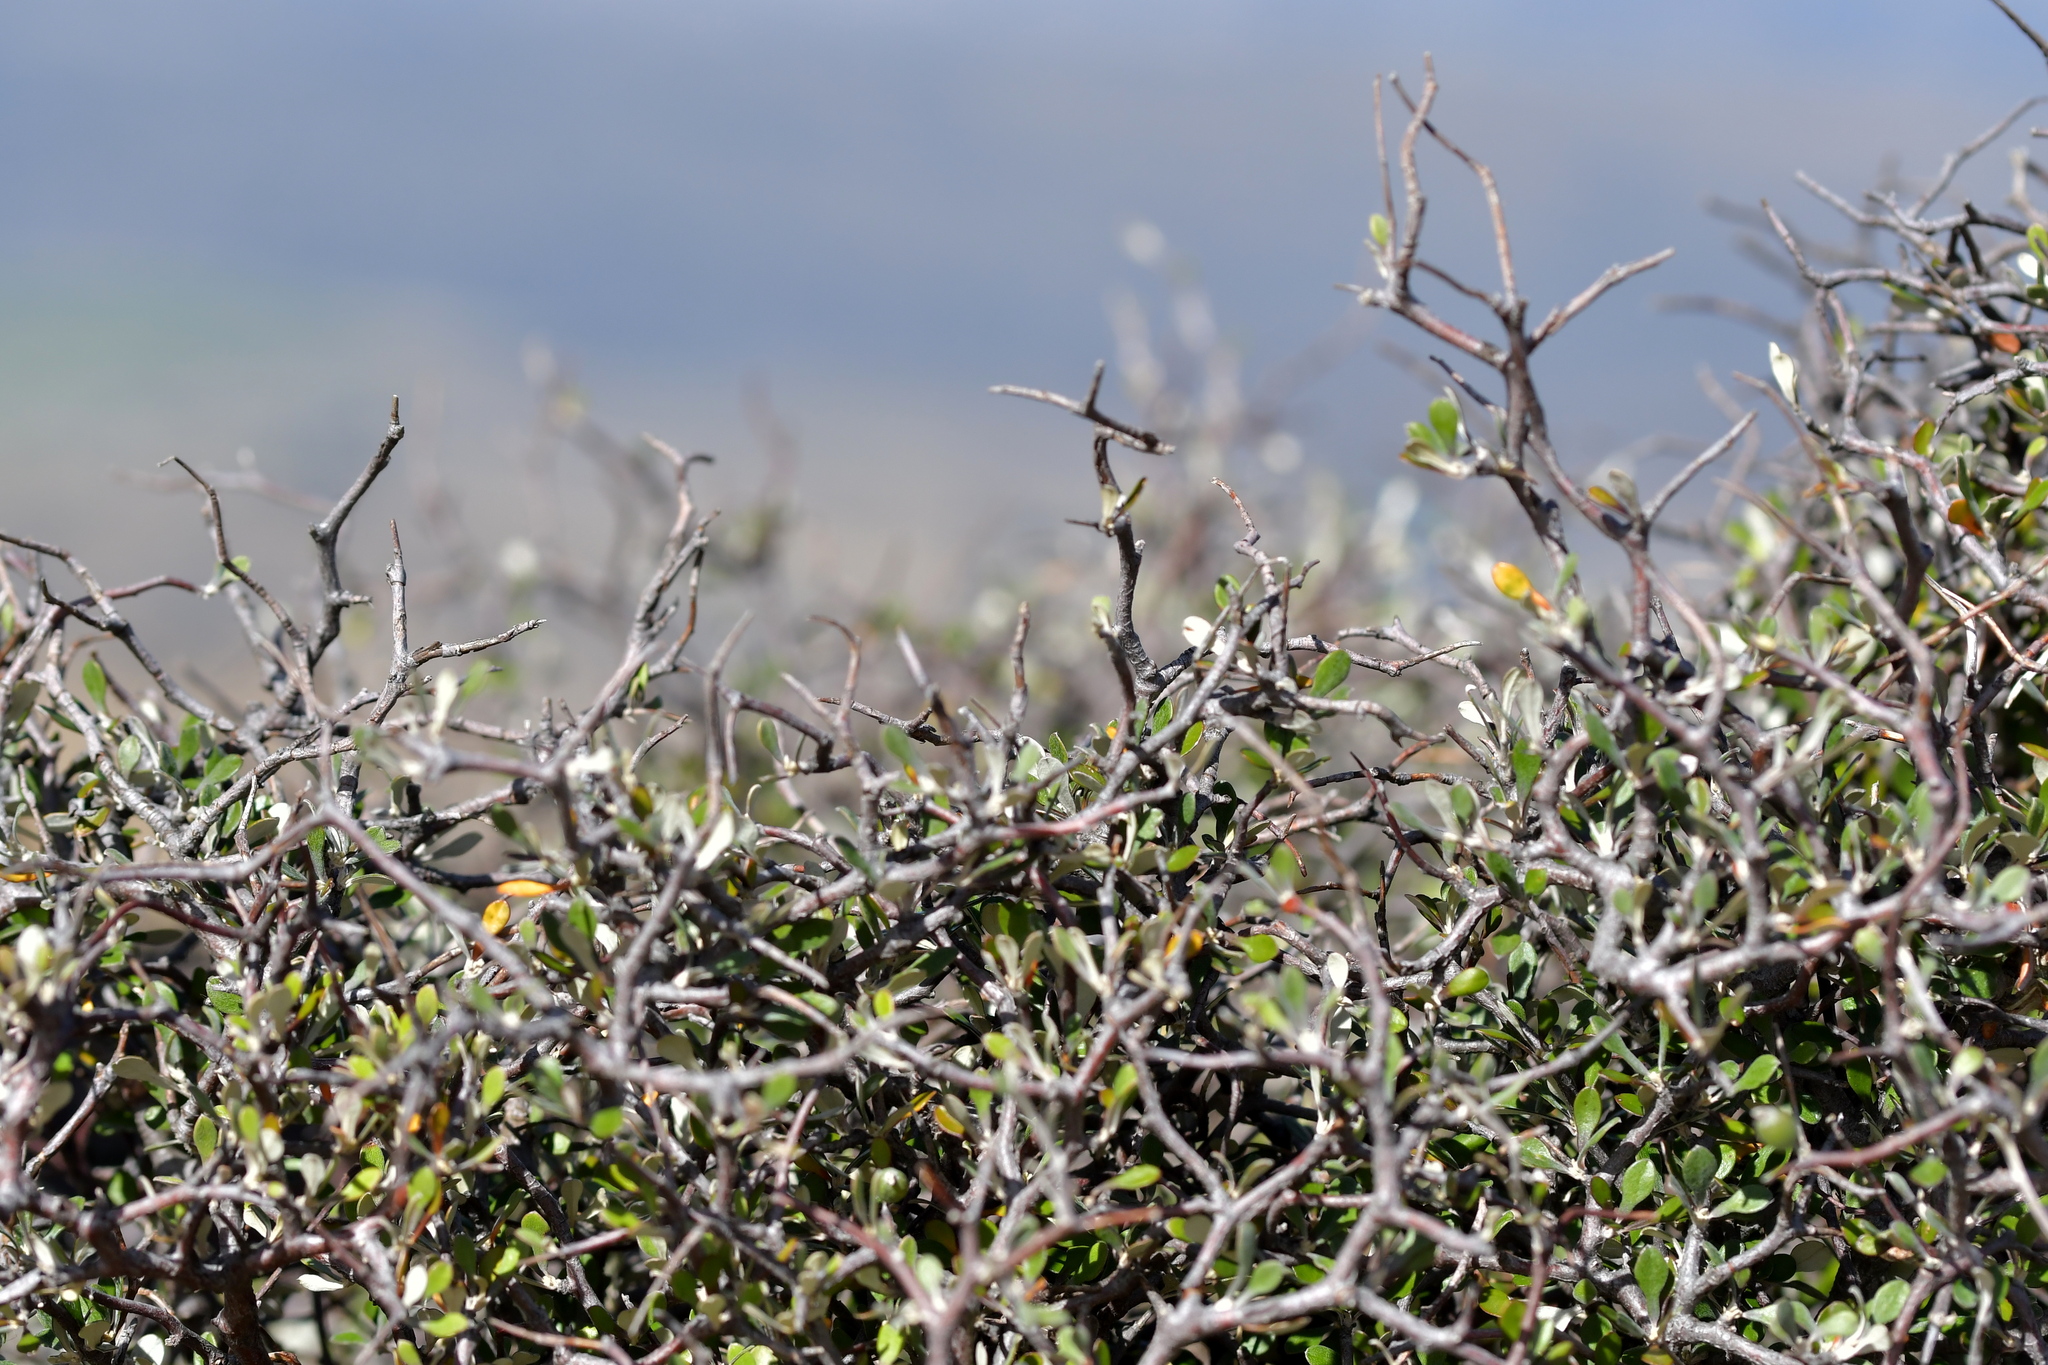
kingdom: Plantae
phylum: Tracheophyta
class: Magnoliopsida
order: Asterales
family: Argophyllaceae
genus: Corokia
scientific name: Corokia cotoneaster
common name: Wire nettingbush
